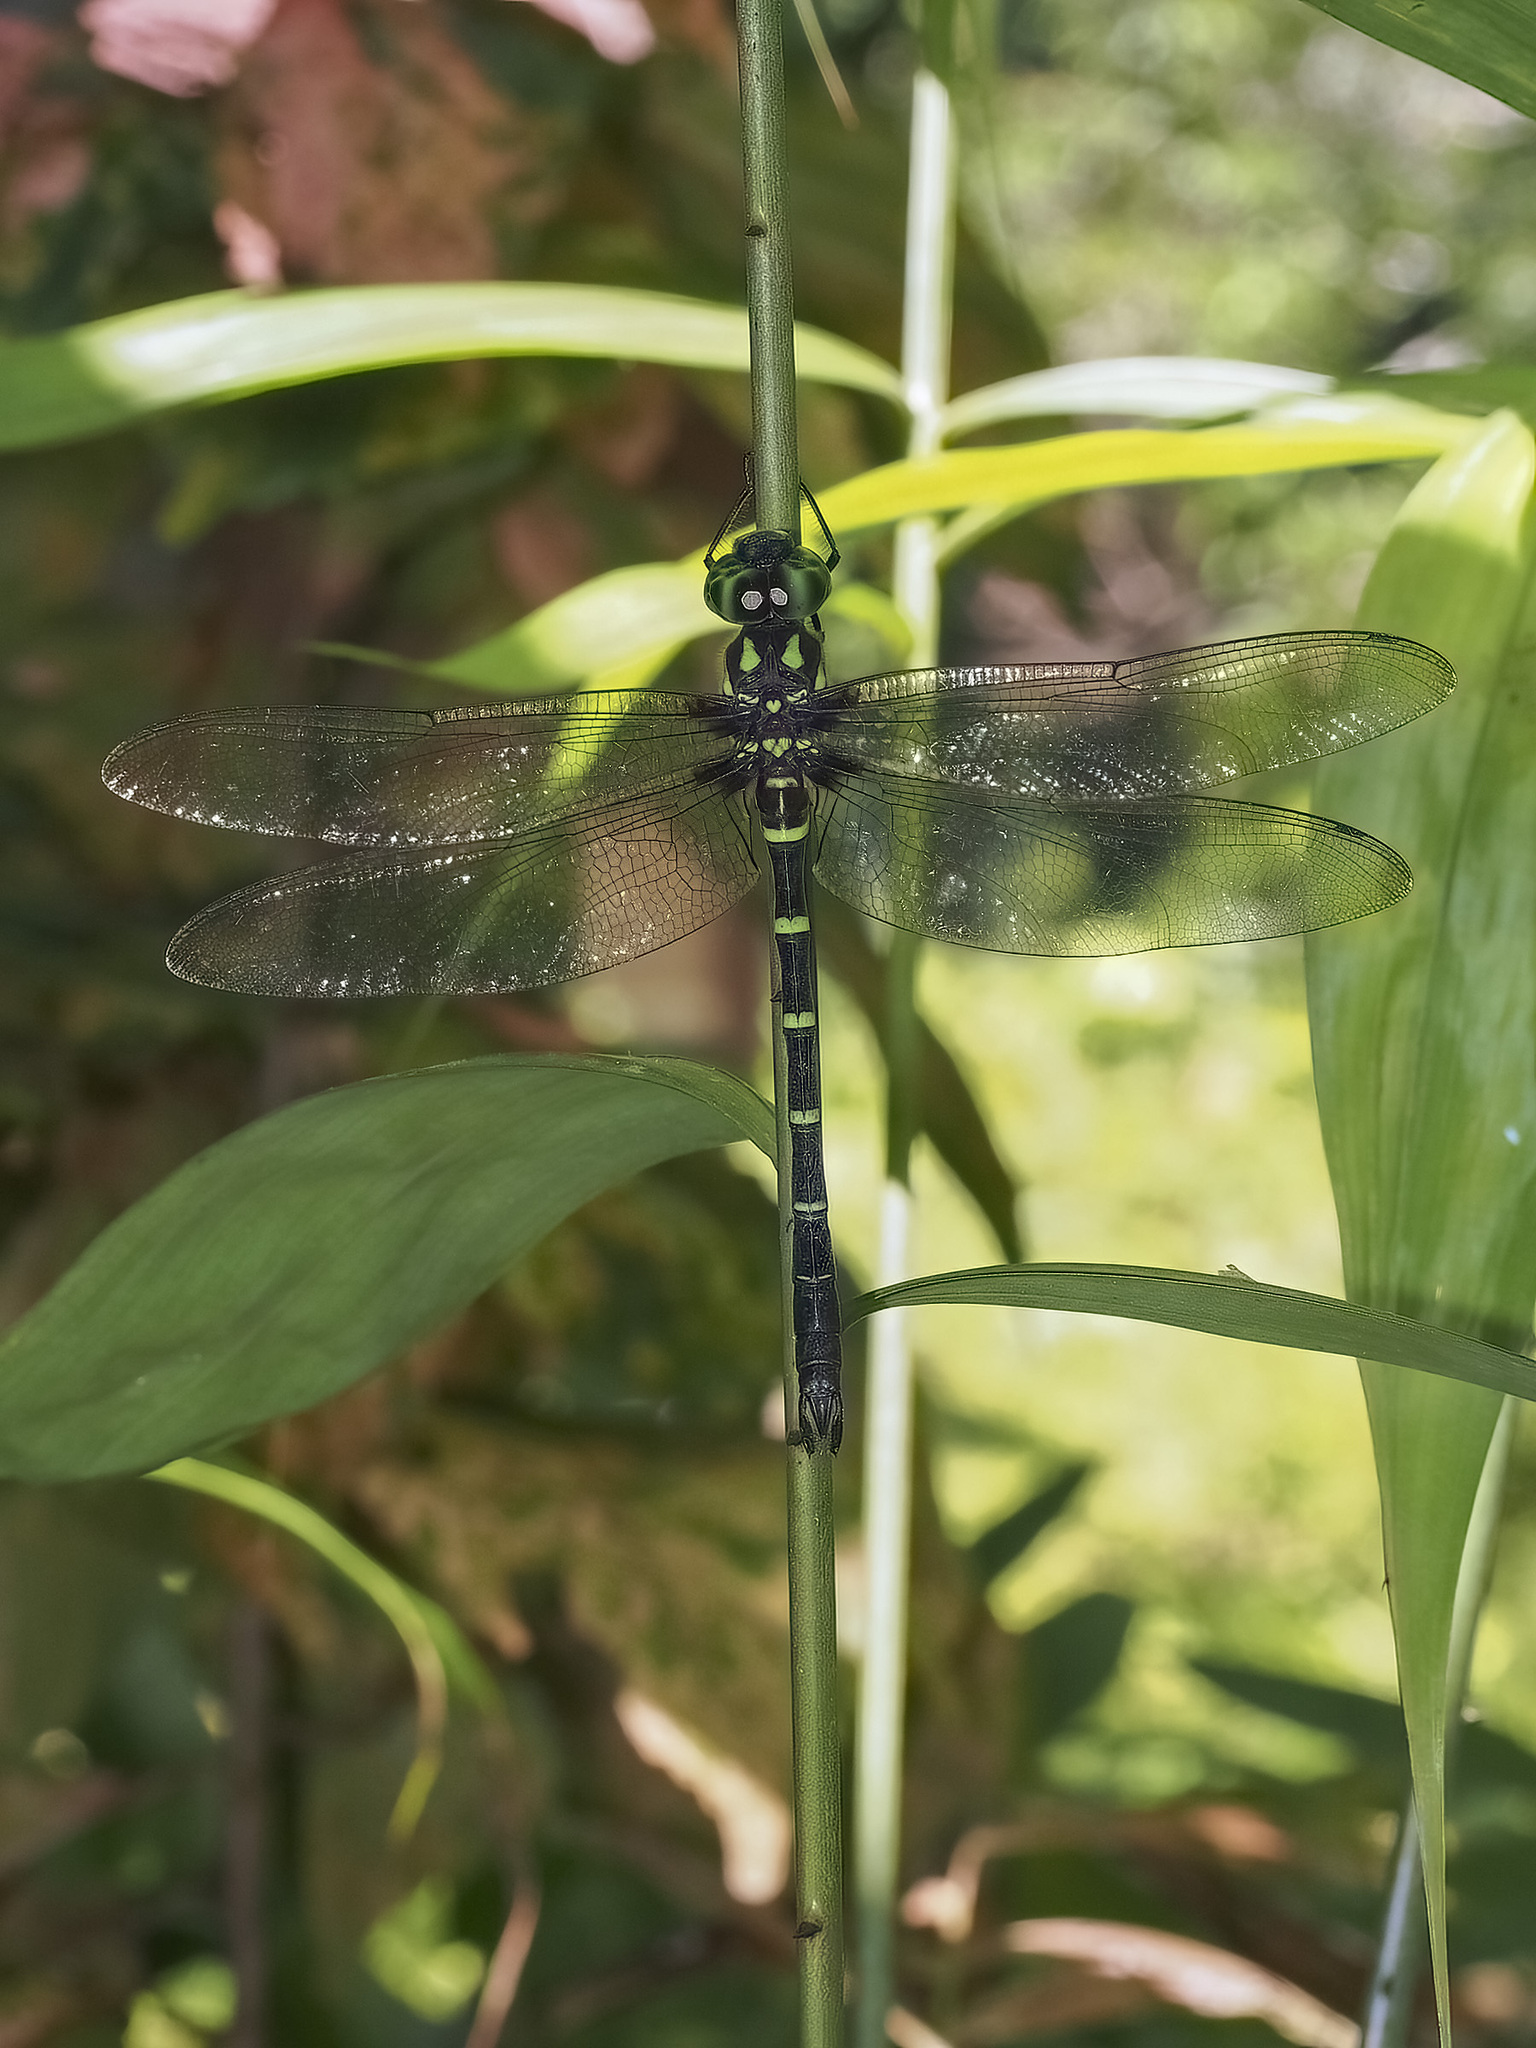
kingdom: Animalia
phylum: Arthropoda
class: Insecta
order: Odonata
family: Aeshnidae
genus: Indaeschna
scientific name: Indaeschna grubaueri
